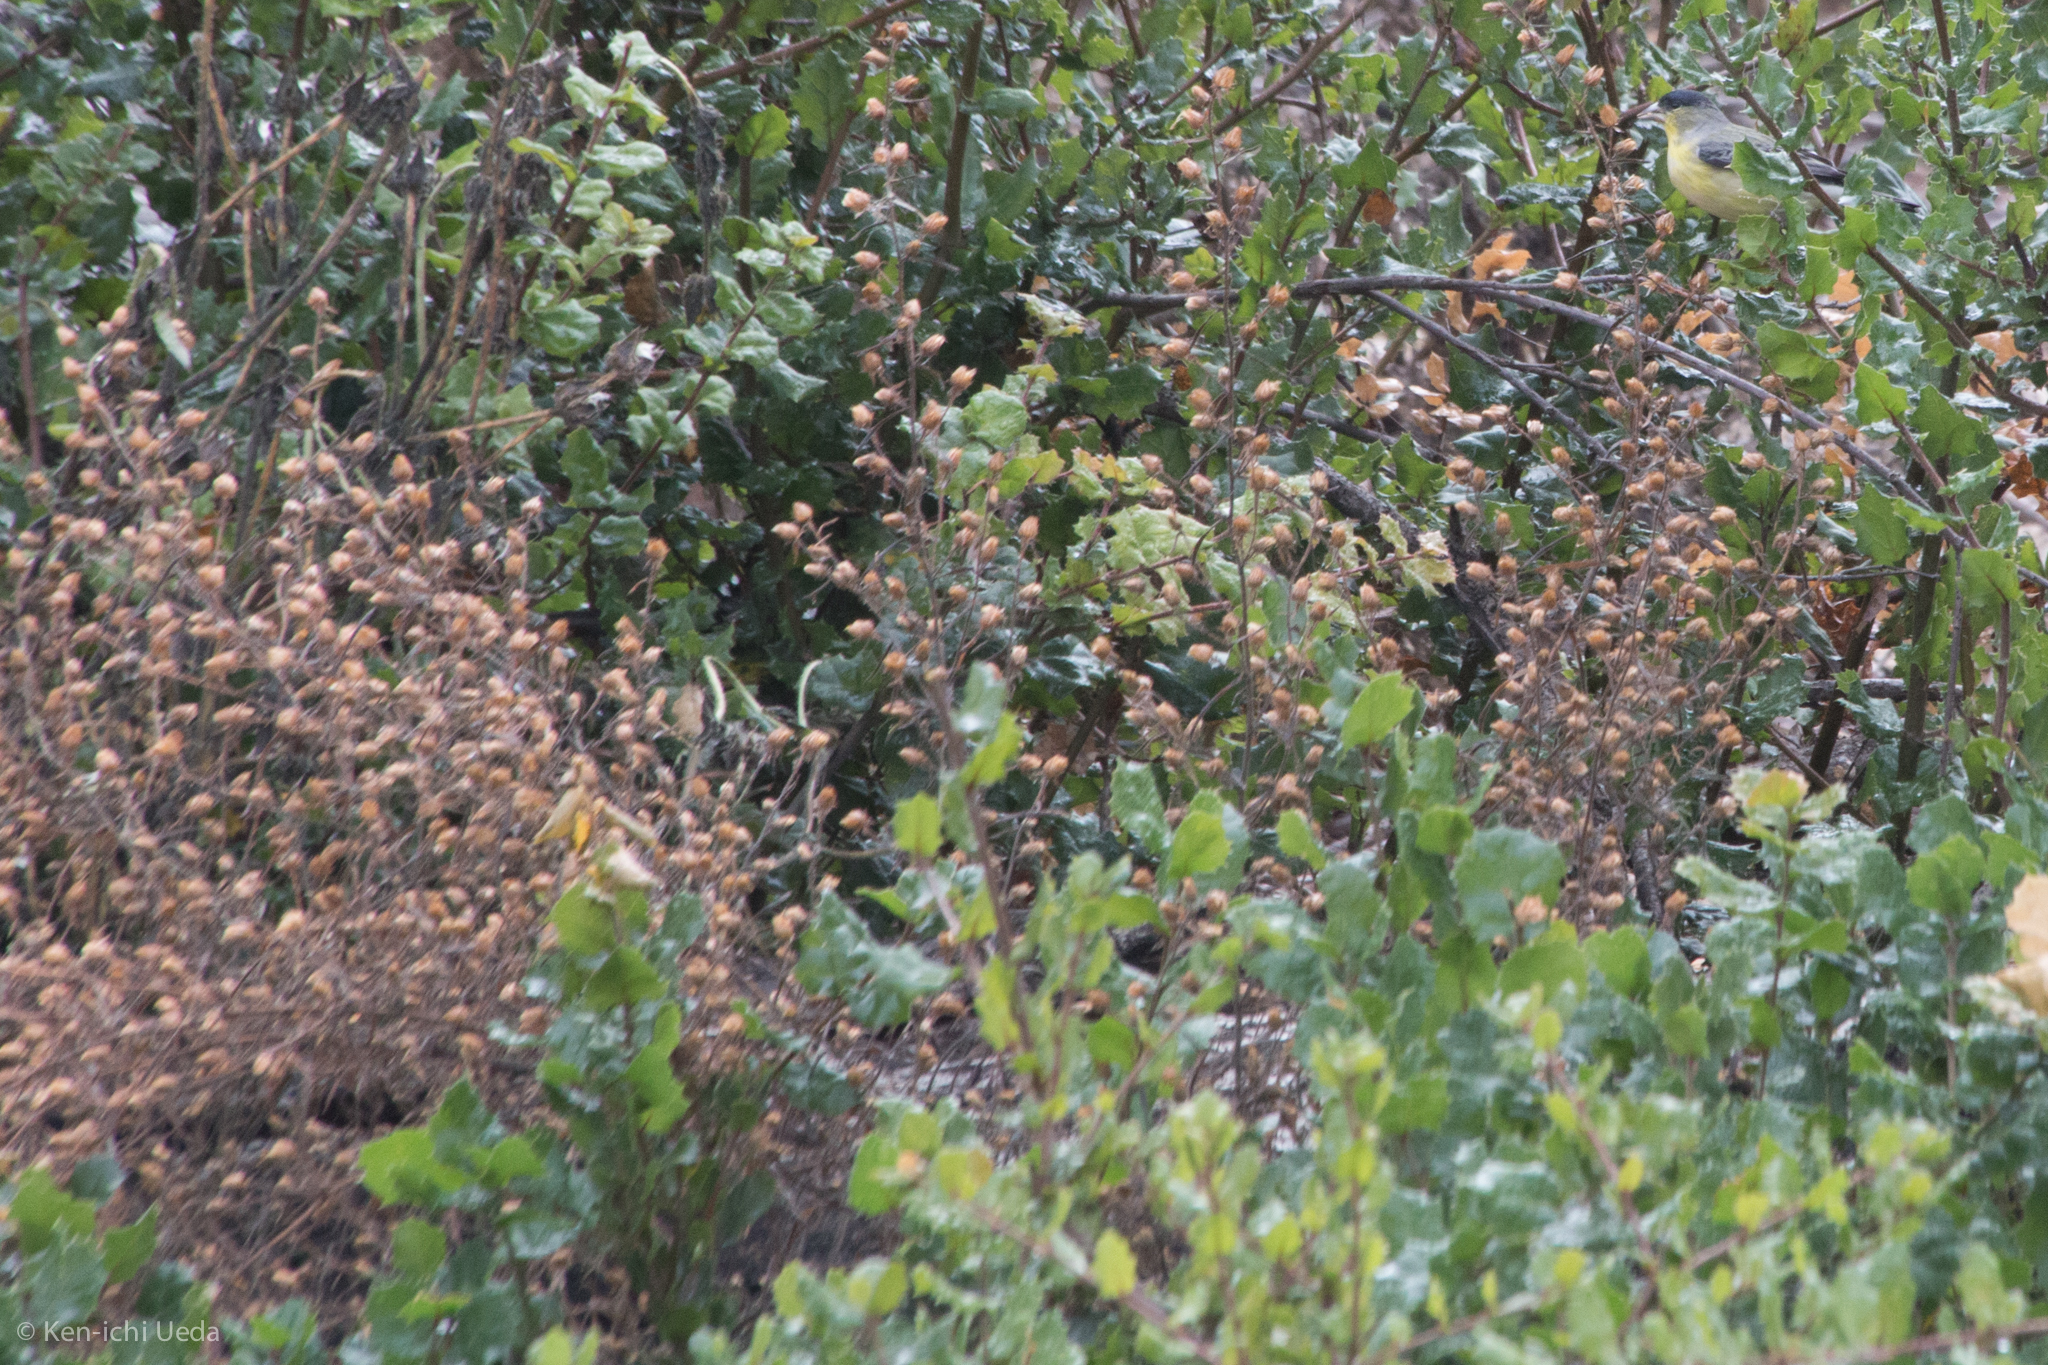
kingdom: Plantae
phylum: Tracheophyta
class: Magnoliopsida
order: Asterales
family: Asteraceae
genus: Dittrichia
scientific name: Dittrichia graveolens
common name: Stinking fleabane
